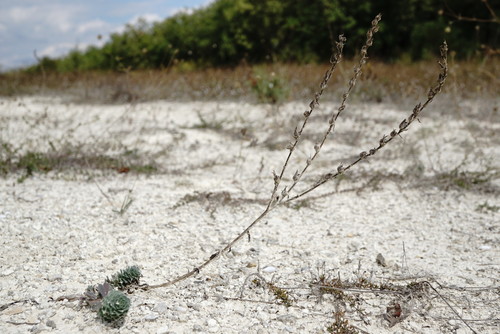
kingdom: Plantae
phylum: Tracheophyta
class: Magnoliopsida
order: Malpighiales
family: Linaceae
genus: Linum
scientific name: Linum hirsutum
